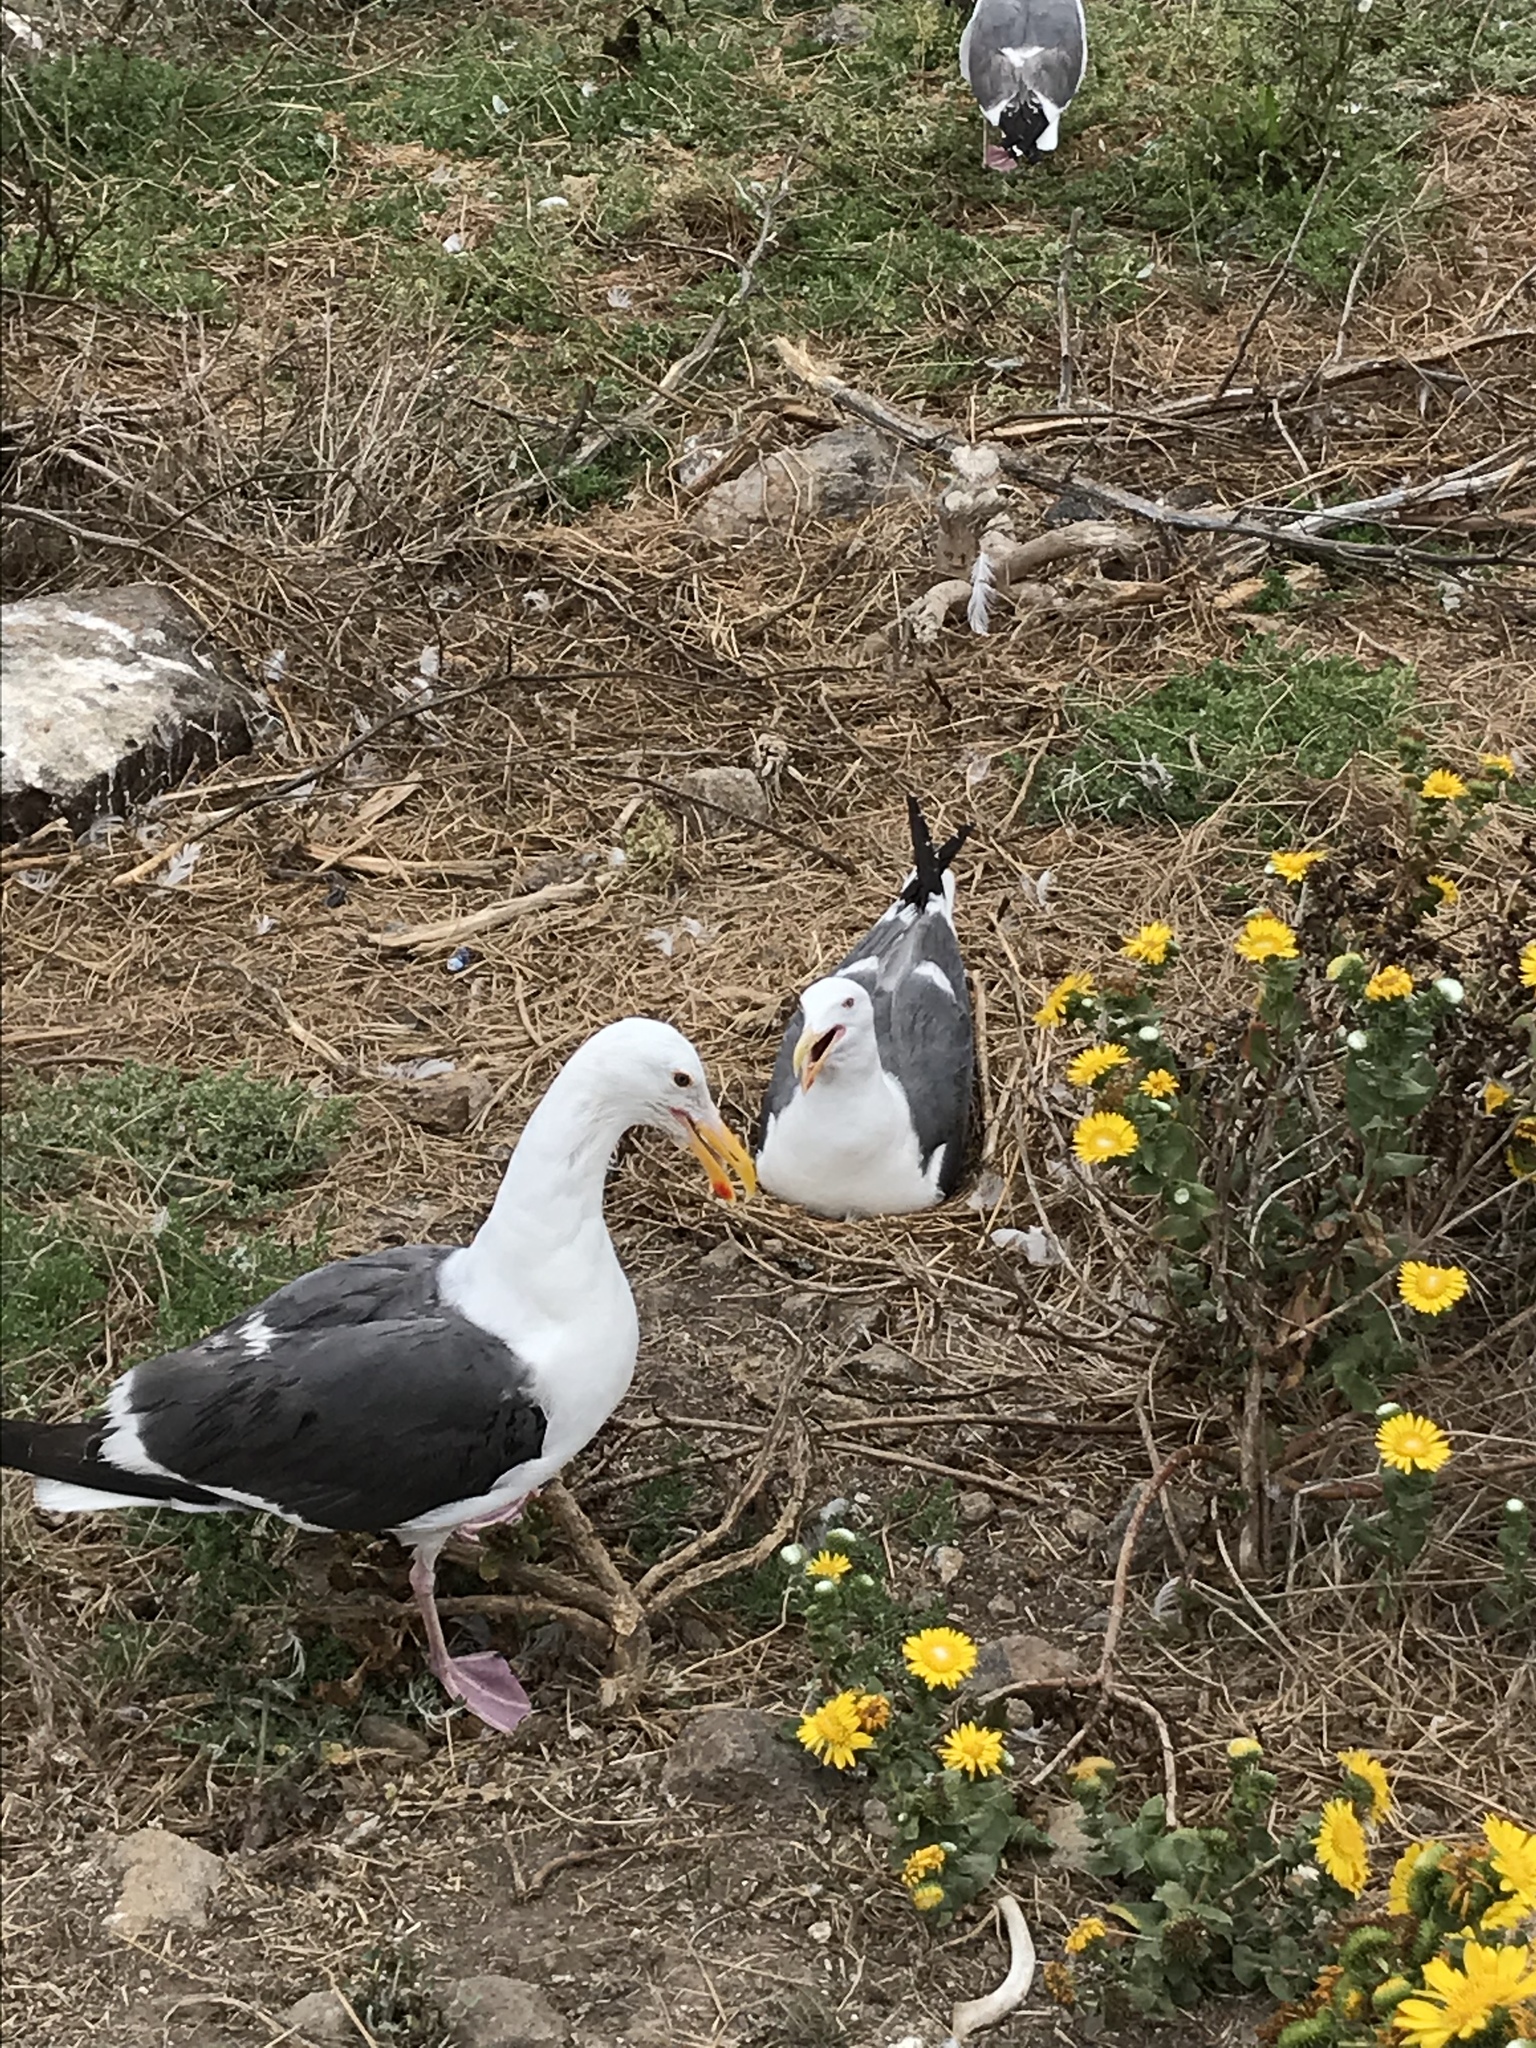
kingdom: Animalia
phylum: Chordata
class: Aves
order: Charadriiformes
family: Laridae
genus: Larus
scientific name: Larus occidentalis
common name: Western gull
